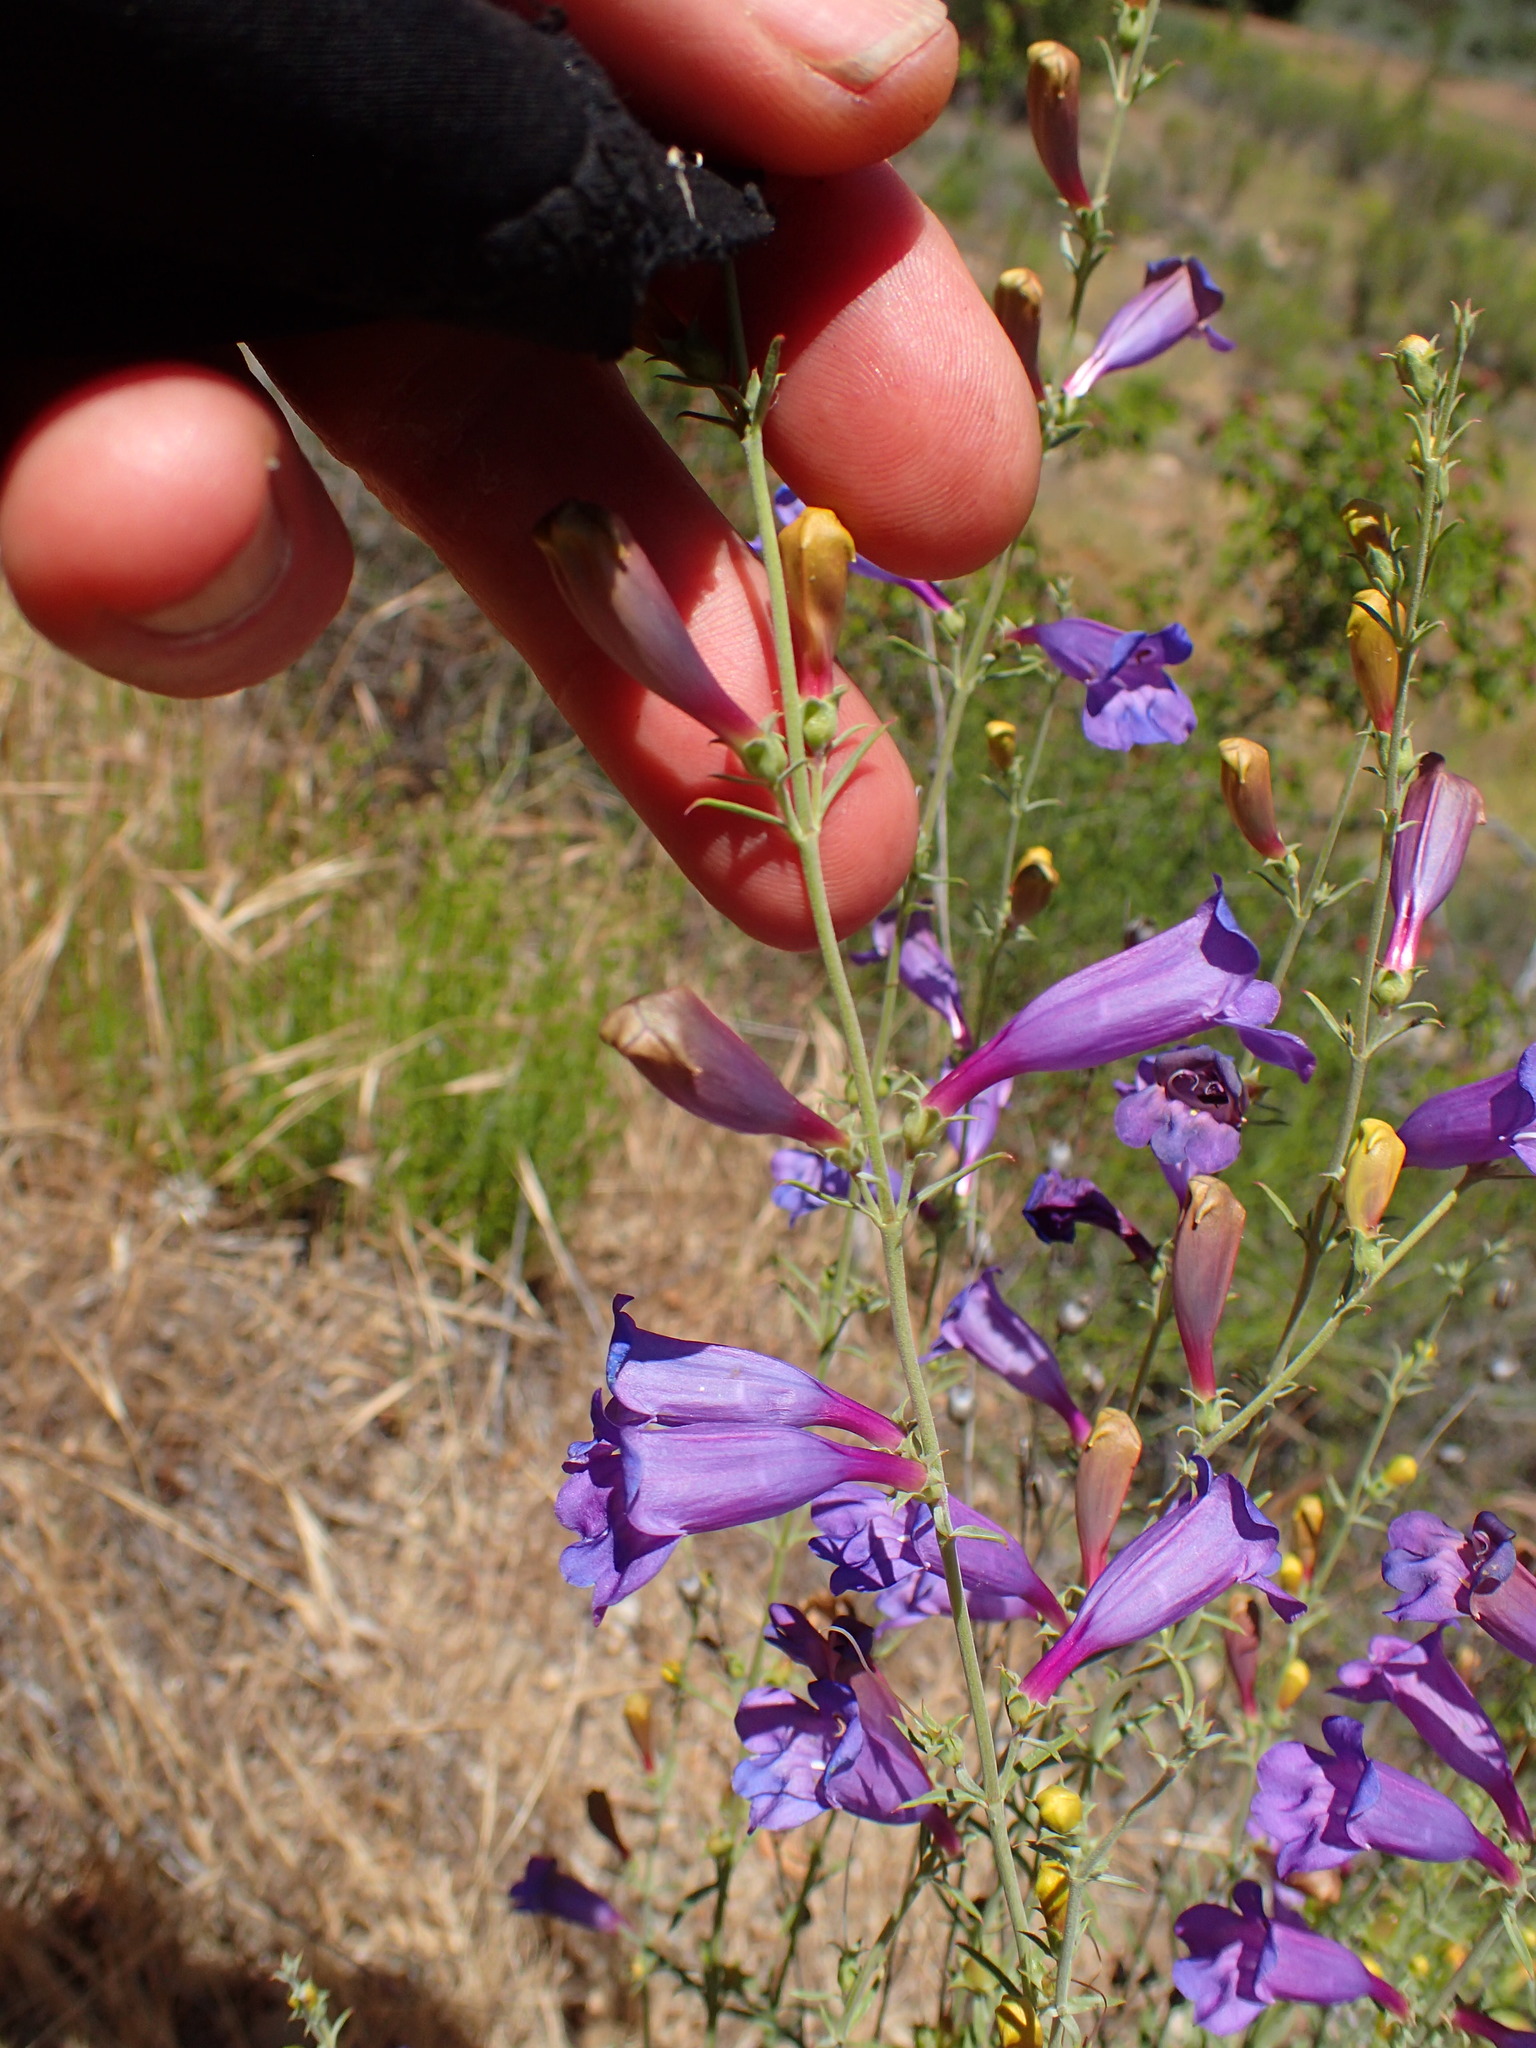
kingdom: Plantae
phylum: Tracheophyta
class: Magnoliopsida
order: Lamiales
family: Plantaginaceae
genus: Penstemon
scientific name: Penstemon heterophyllus
